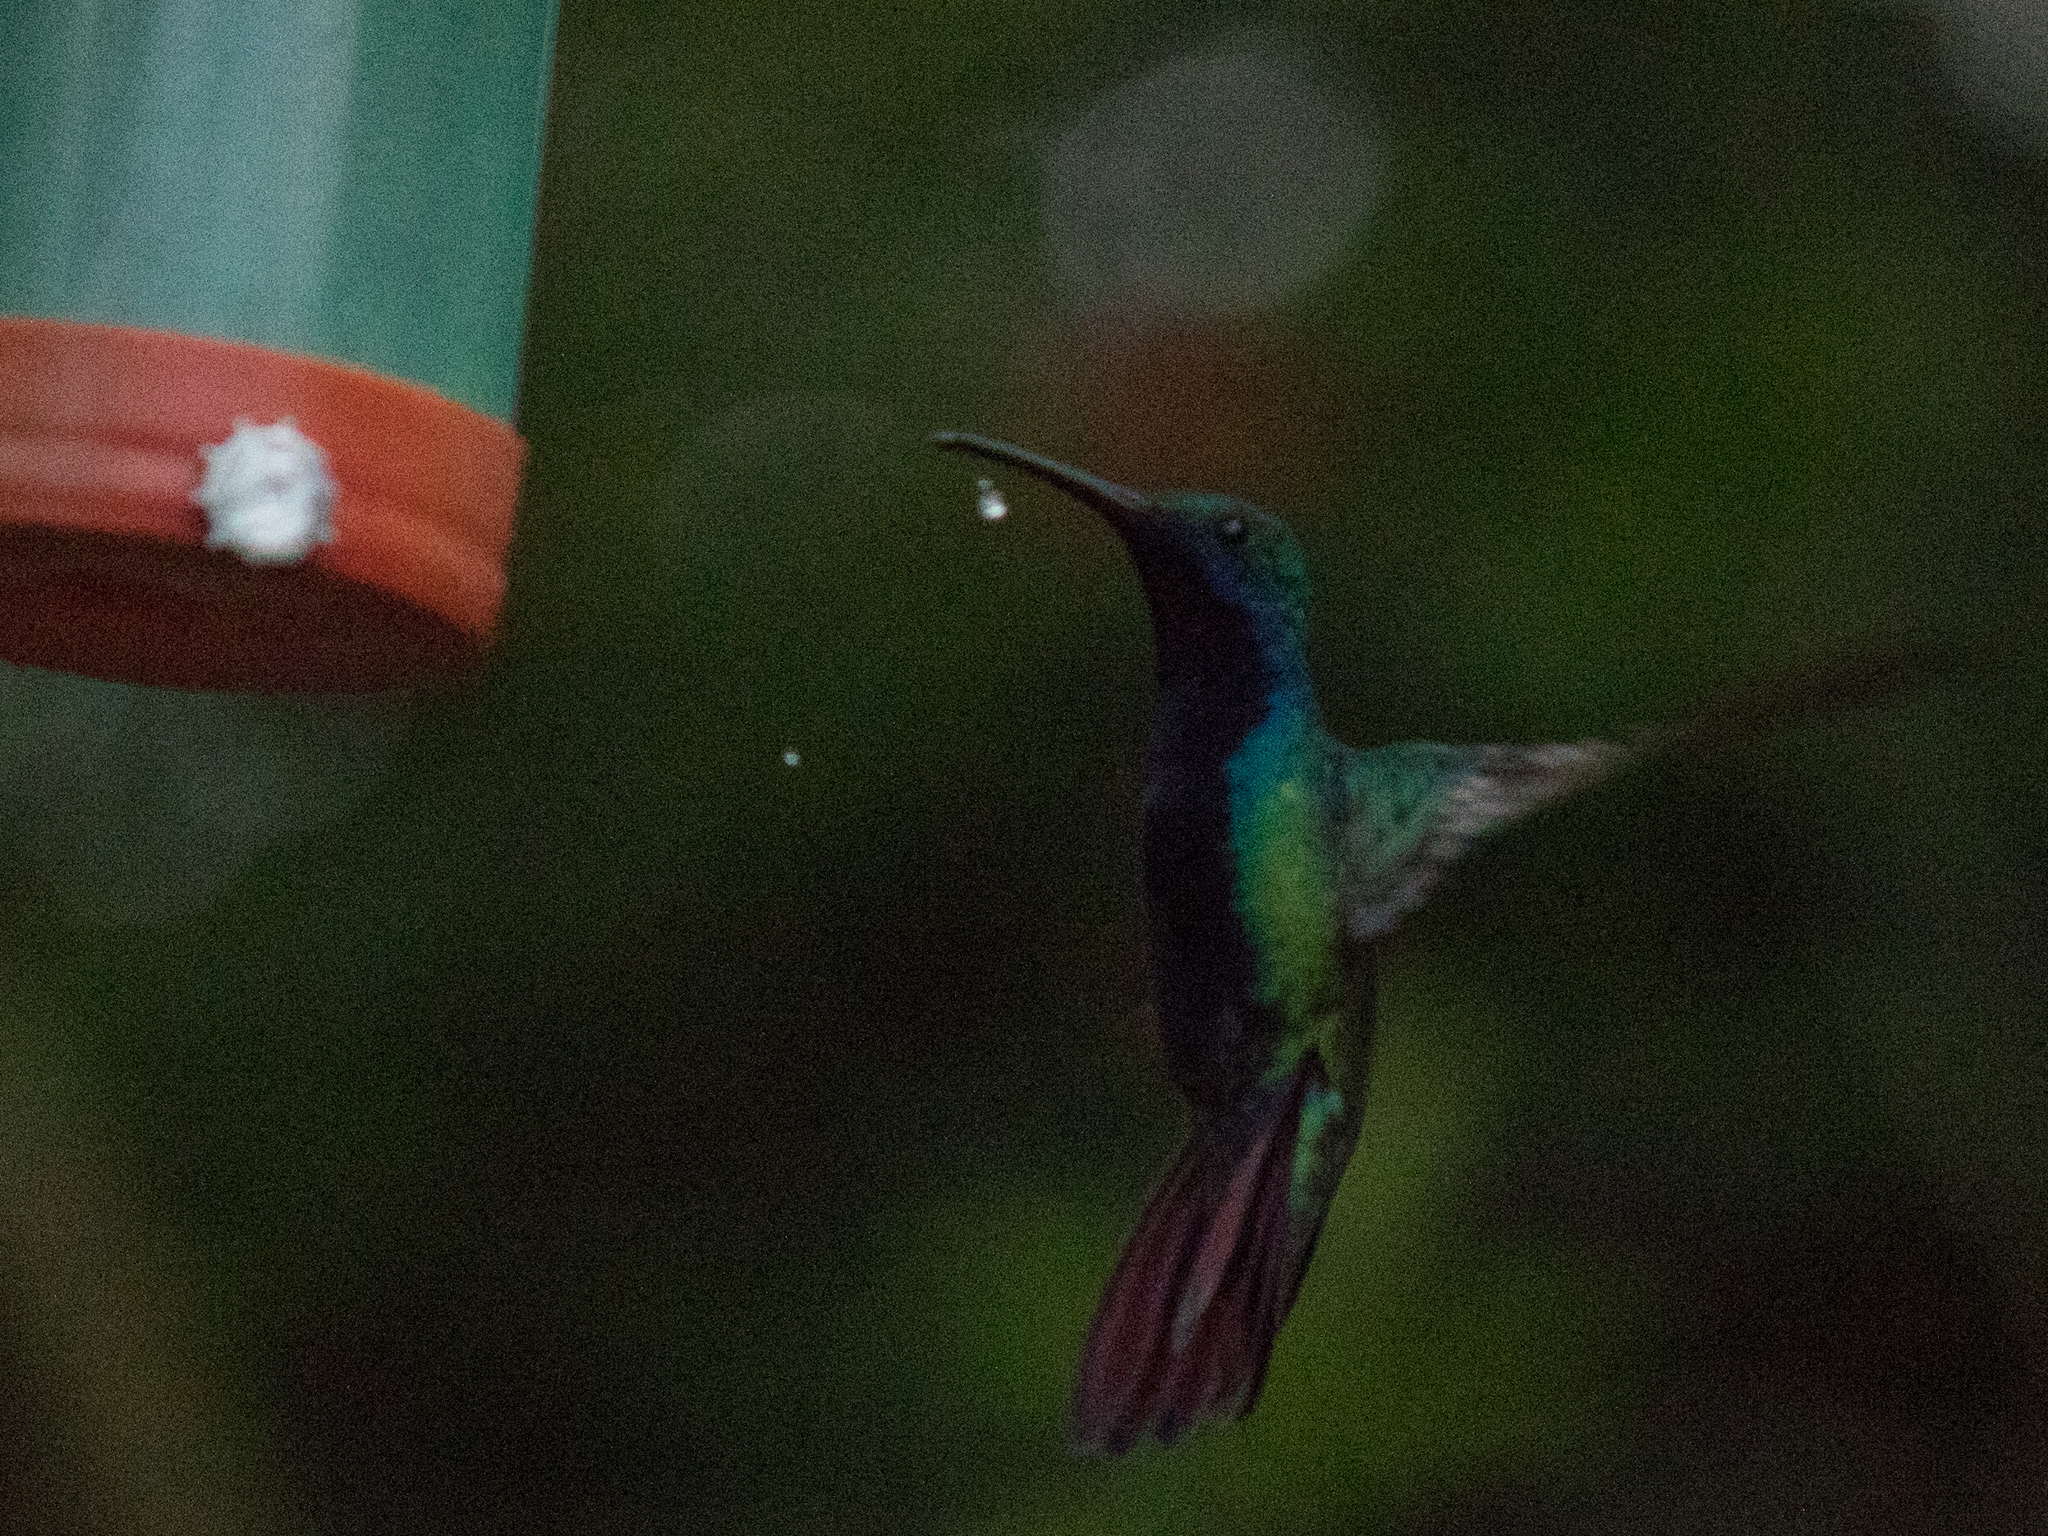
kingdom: Animalia
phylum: Chordata
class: Aves
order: Apodiformes
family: Trochilidae
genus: Anthracothorax
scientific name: Anthracothorax nigricollis
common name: Black-throated mango
